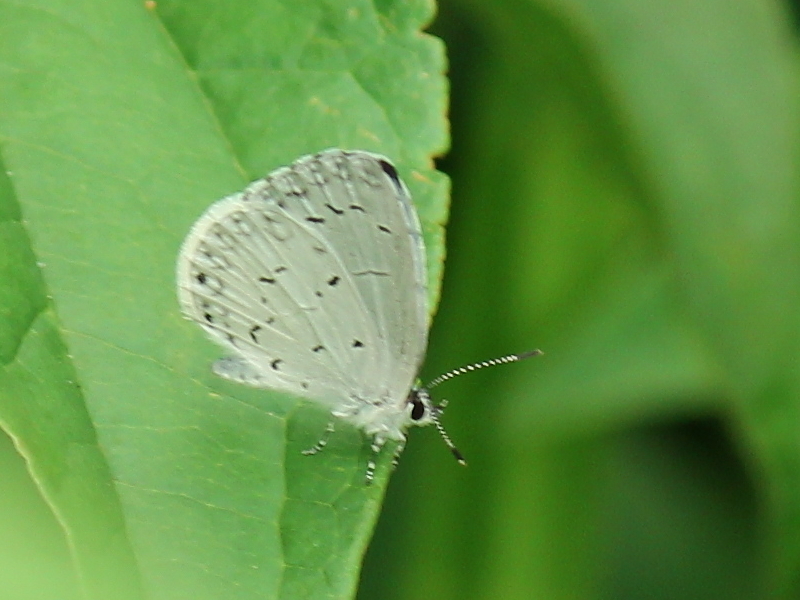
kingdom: Animalia
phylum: Arthropoda
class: Insecta
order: Lepidoptera
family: Lycaenidae
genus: Cyaniris
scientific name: Cyaniris neglecta
